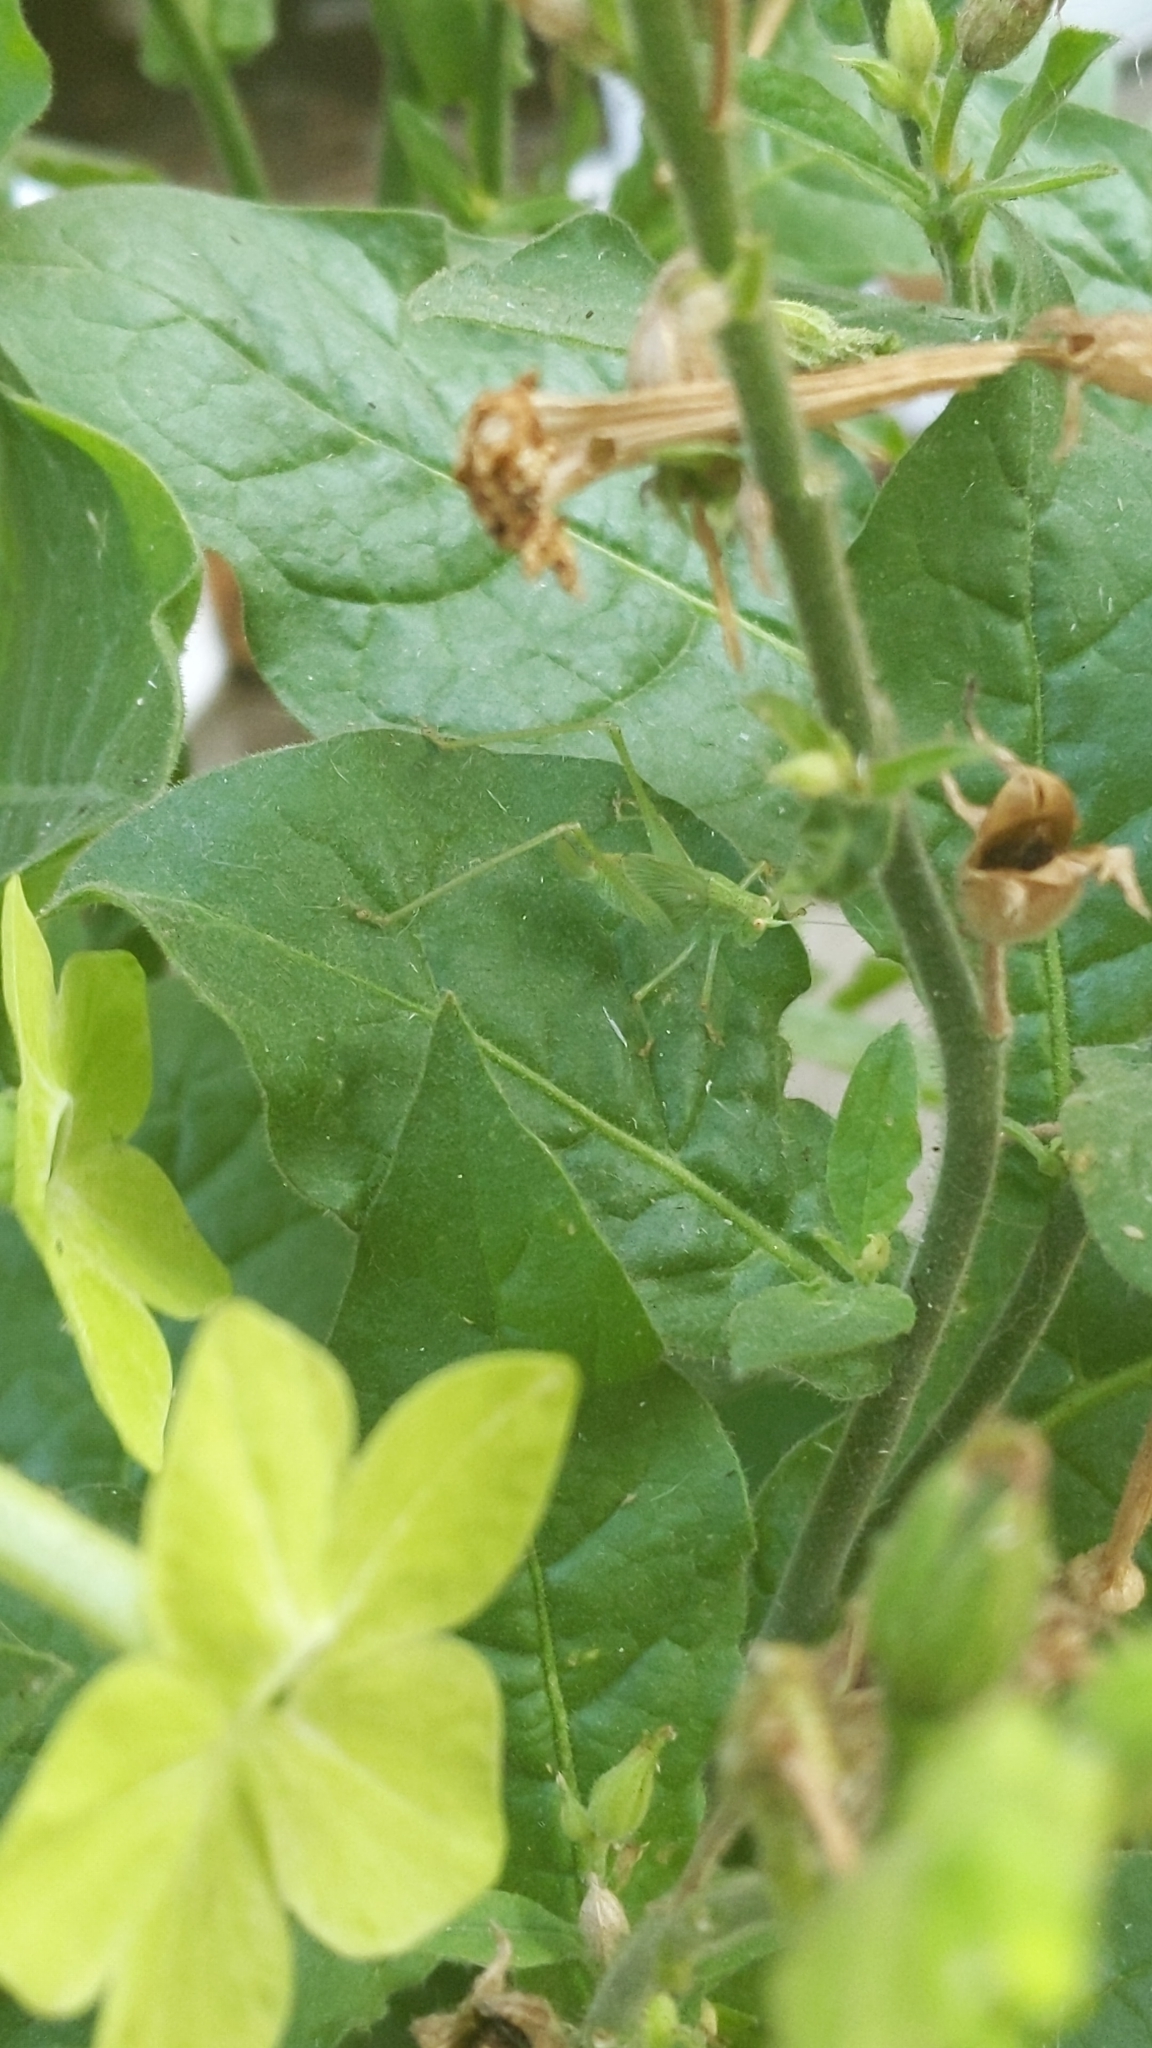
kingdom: Animalia
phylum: Arthropoda
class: Insecta
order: Orthoptera
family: Tettigoniidae
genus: Phaneroptera
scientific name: Phaneroptera nana
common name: Southern sickle bush-cricket
